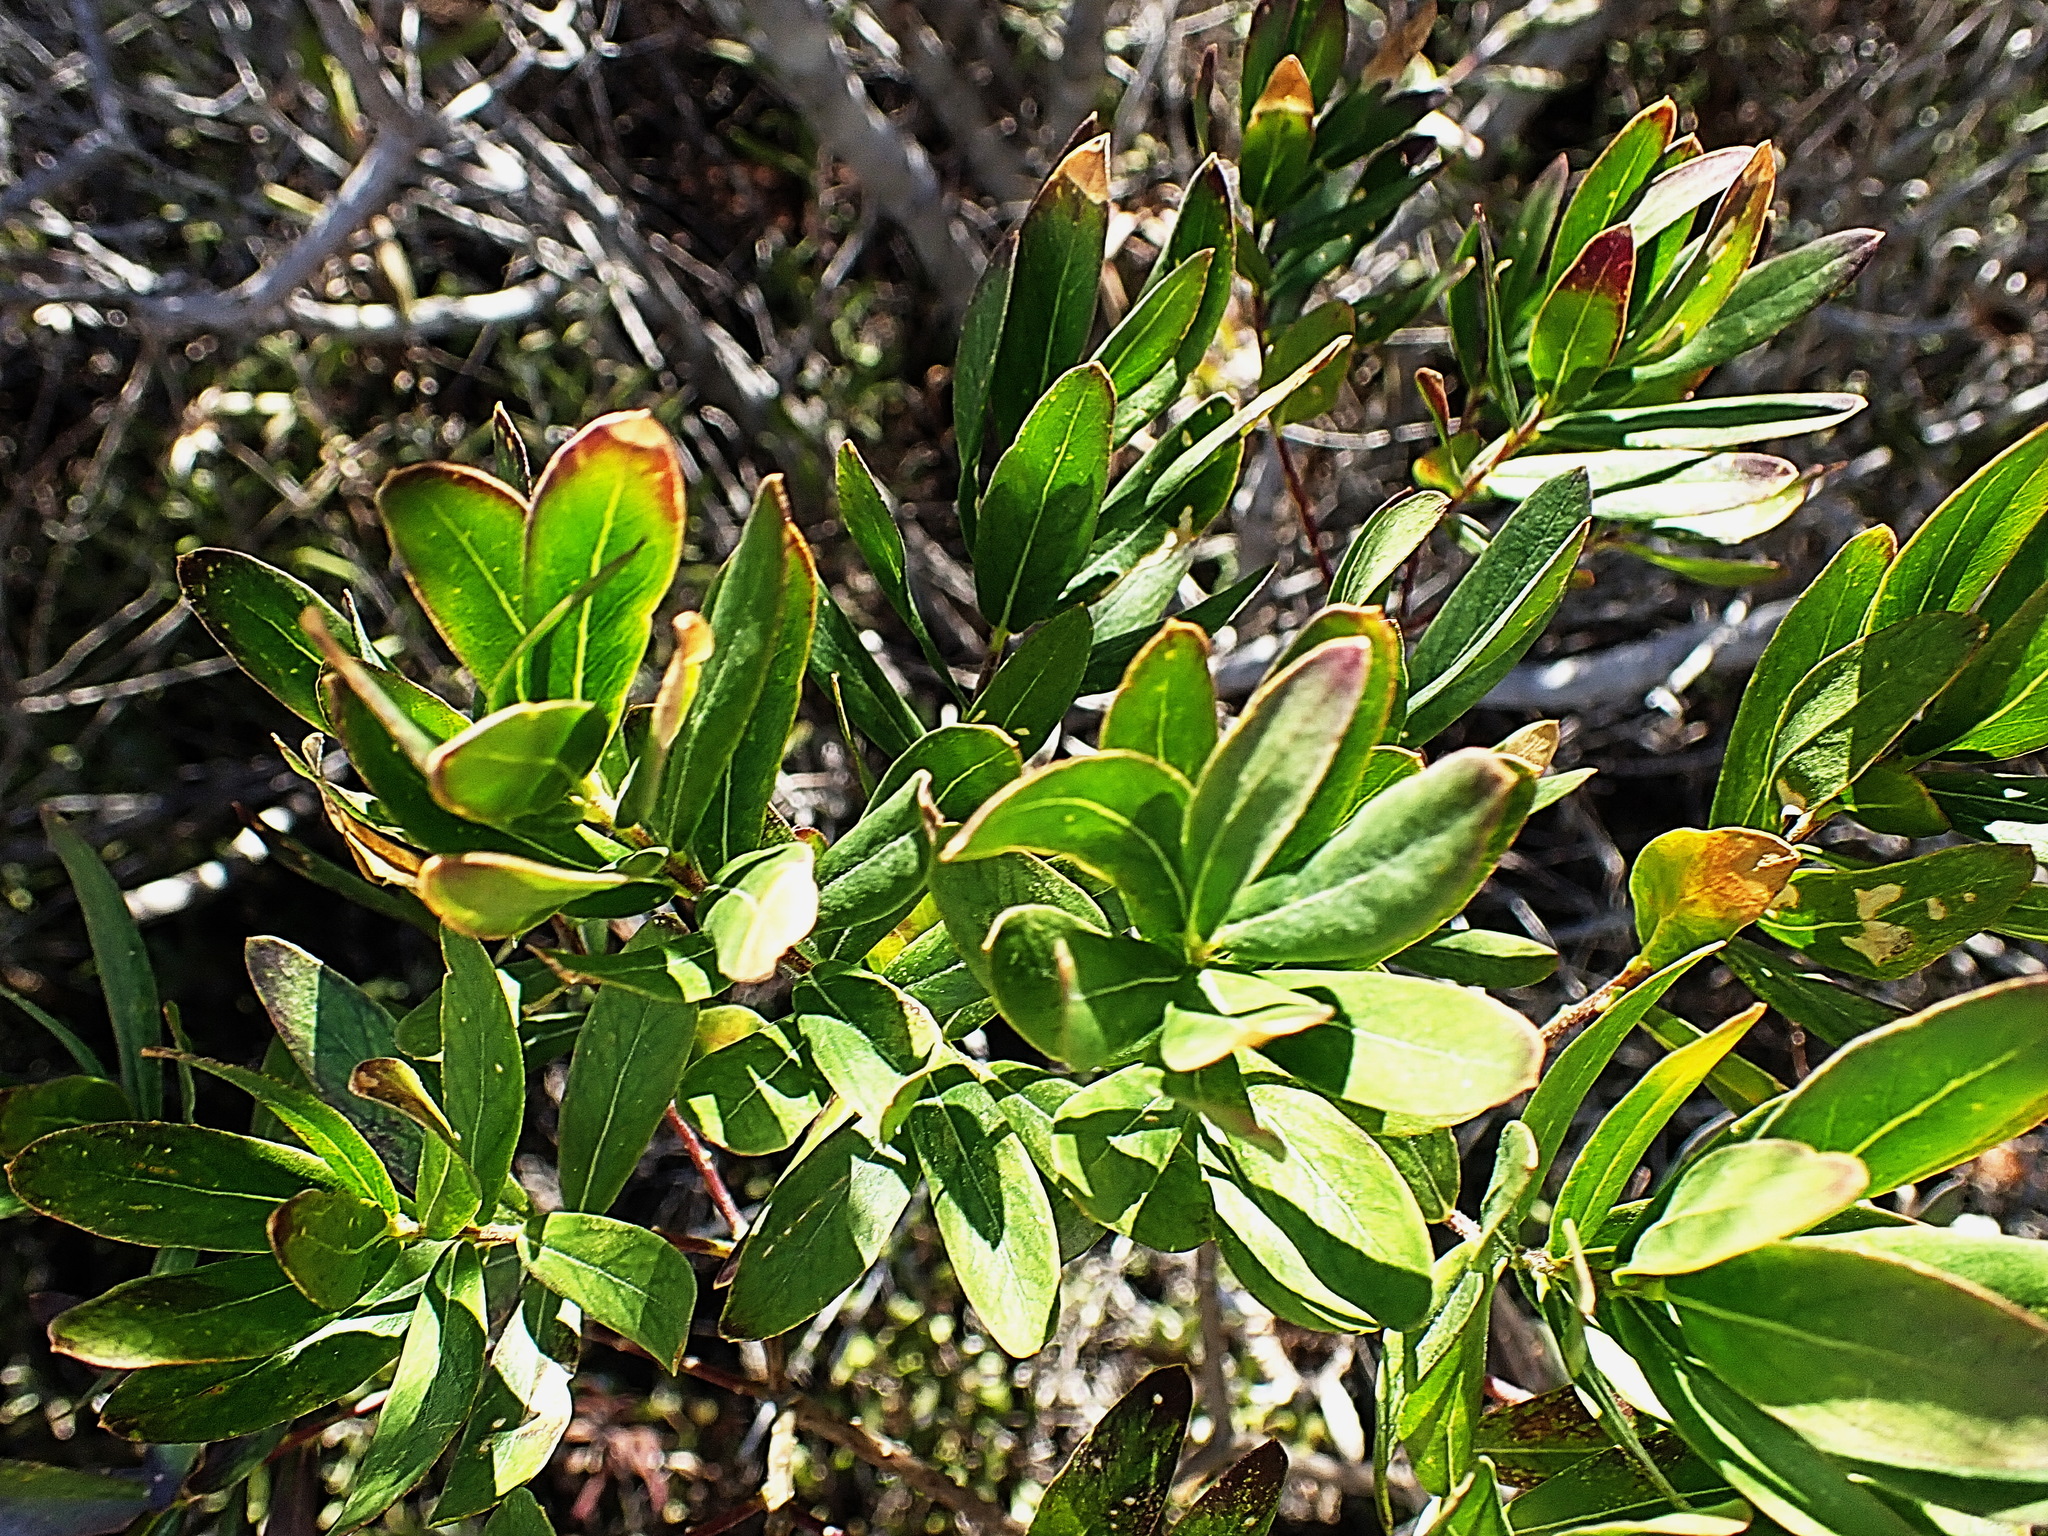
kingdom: Plantae
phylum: Tracheophyta
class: Magnoliopsida
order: Fabales
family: Polygalaceae
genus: Polygala
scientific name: Polygala myrtifolia
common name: Myrtle-leaf milkwort
